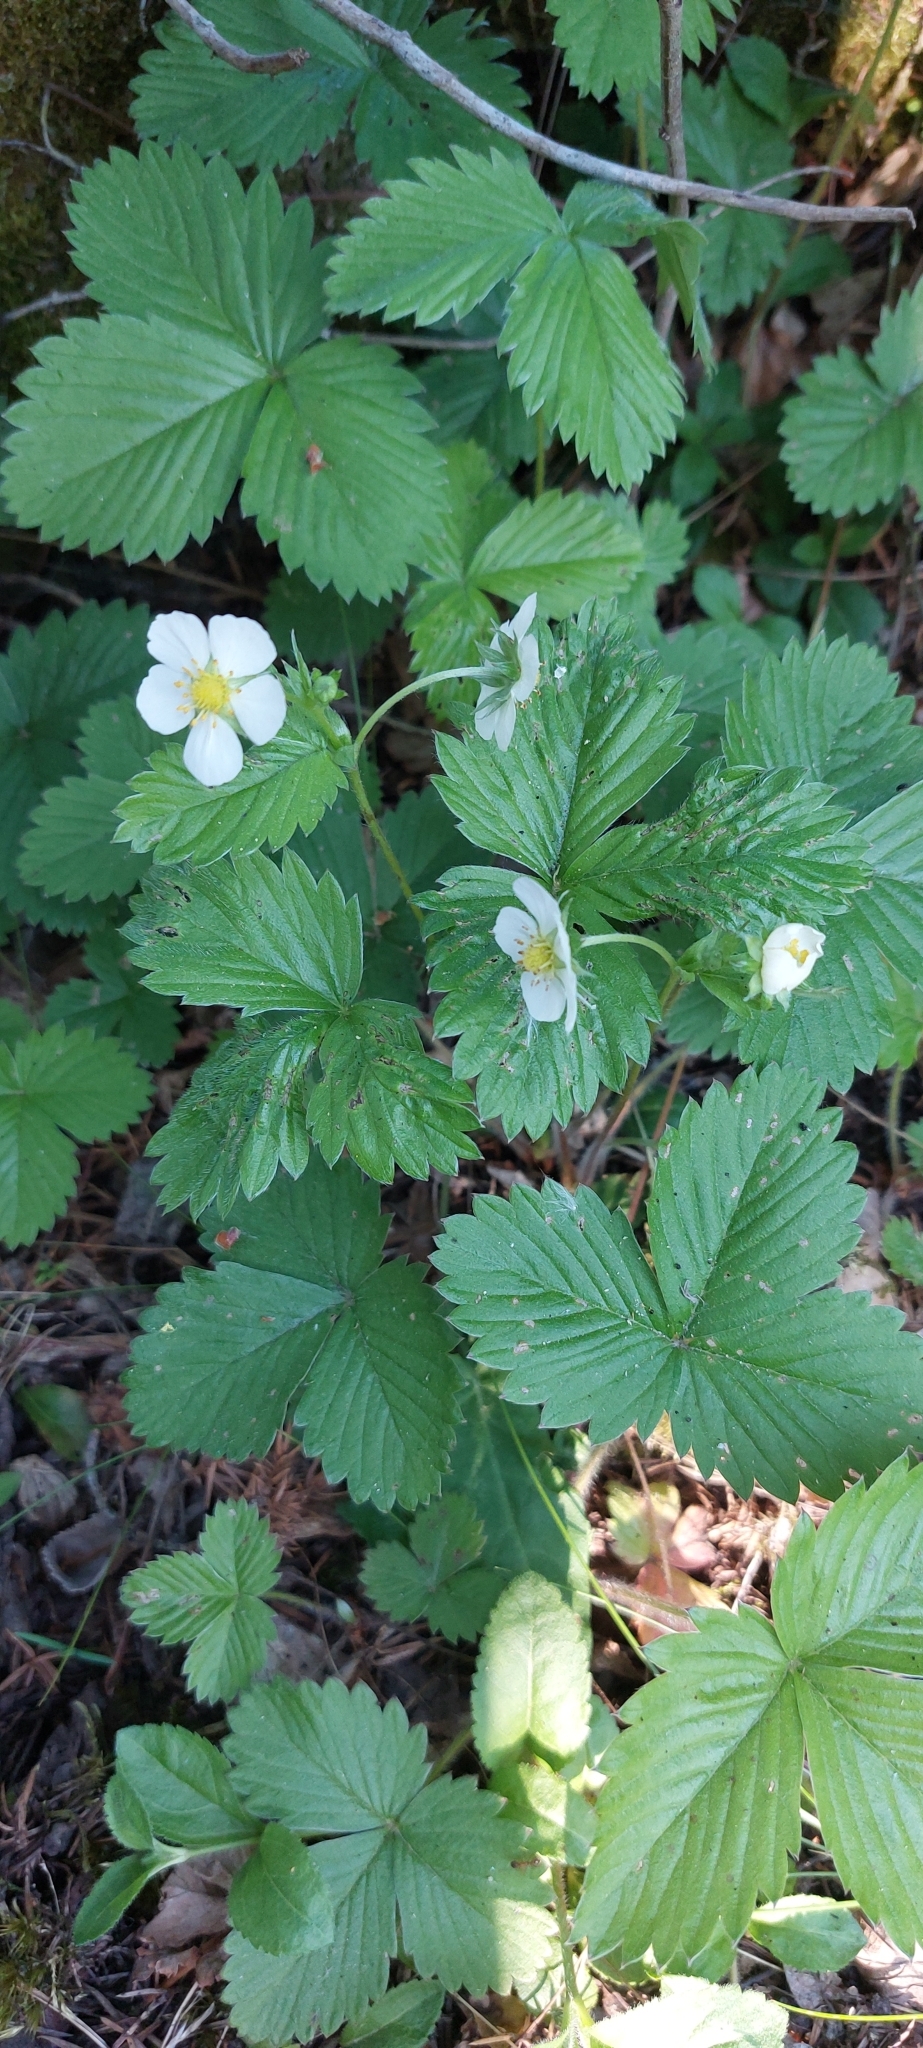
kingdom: Plantae
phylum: Tracheophyta
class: Magnoliopsida
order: Rosales
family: Rosaceae
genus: Fragaria
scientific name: Fragaria vesca
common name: Wild strawberry
